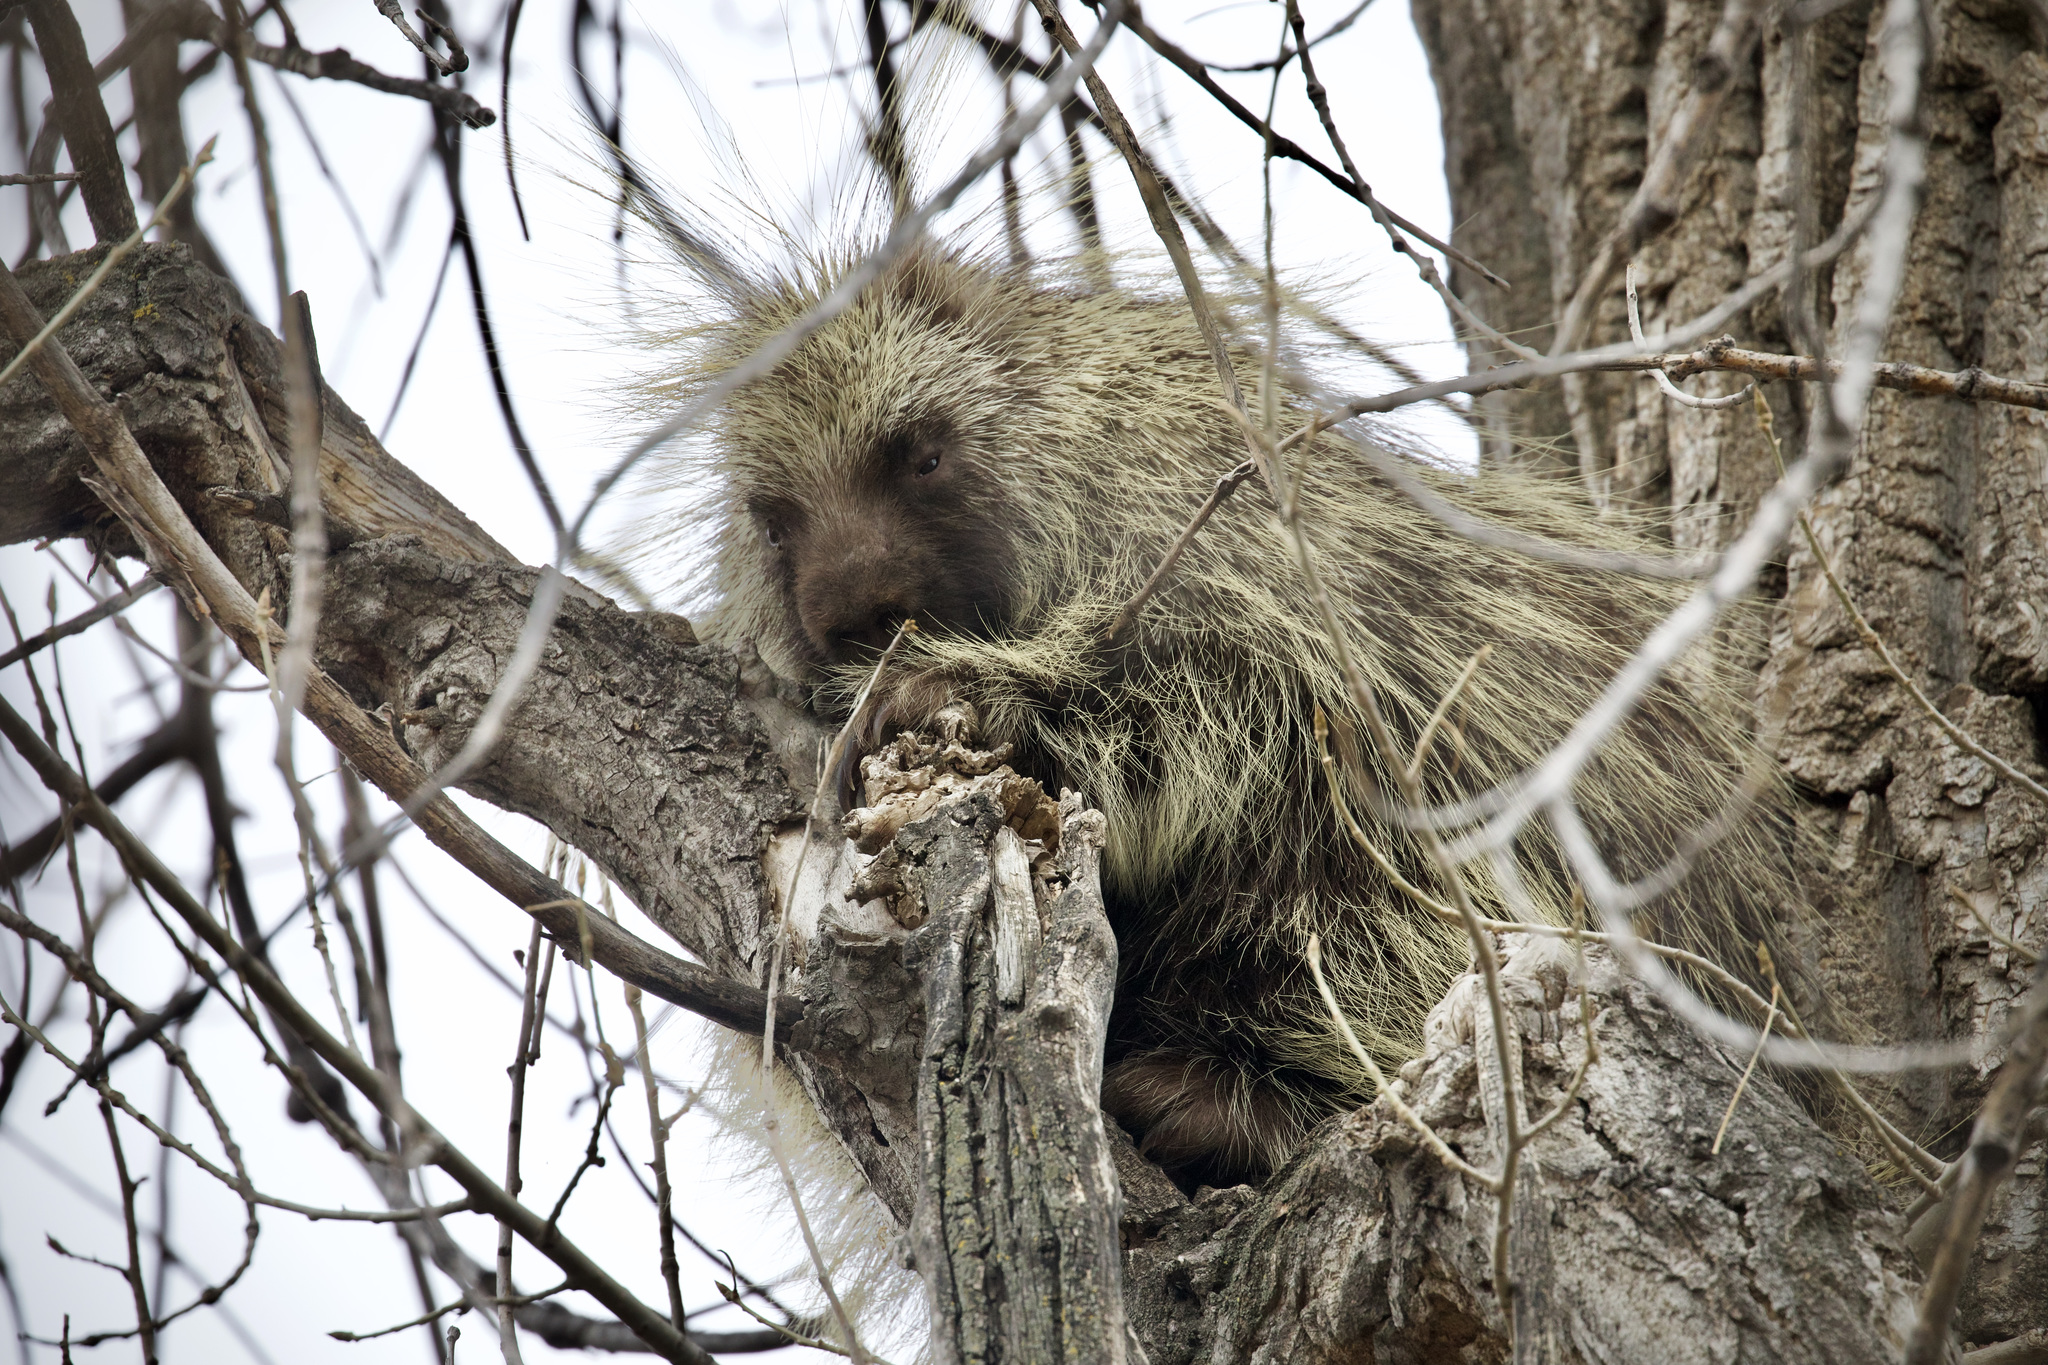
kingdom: Animalia
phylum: Chordata
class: Mammalia
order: Rodentia
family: Erethizontidae
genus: Erethizon
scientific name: Erethizon dorsatus
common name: North american porcupine
